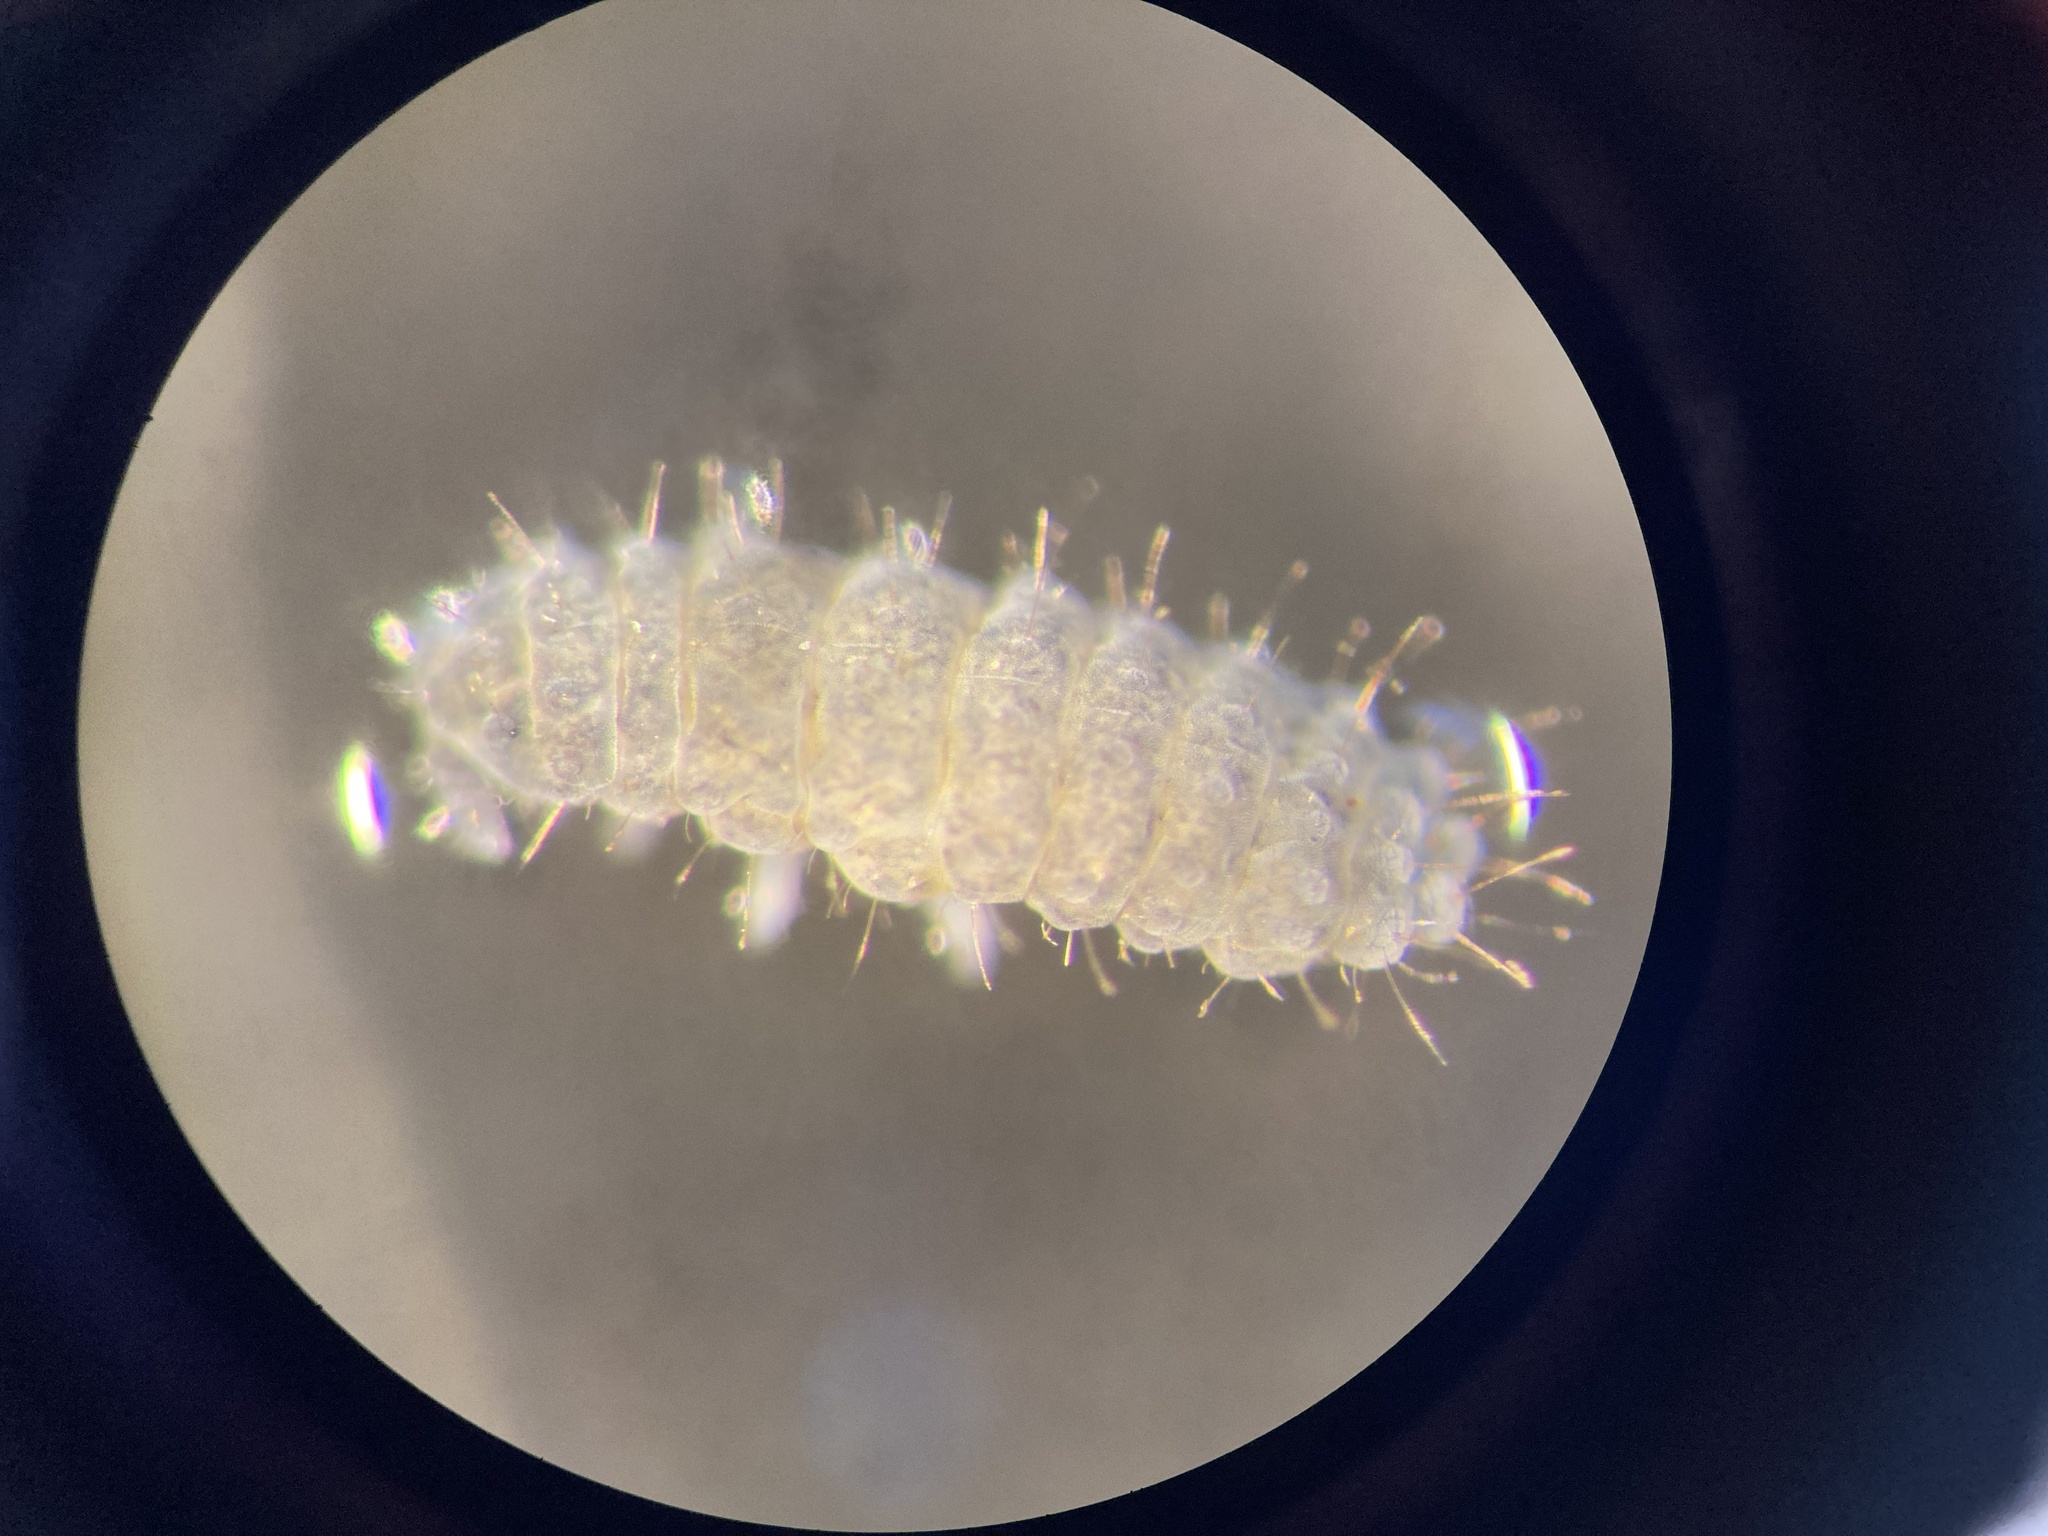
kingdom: Animalia
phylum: Arthropoda
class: Collembola
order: Poduromorpha
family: Neanuridae
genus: Neanura
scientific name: Neanura muscorum
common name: Springtail
